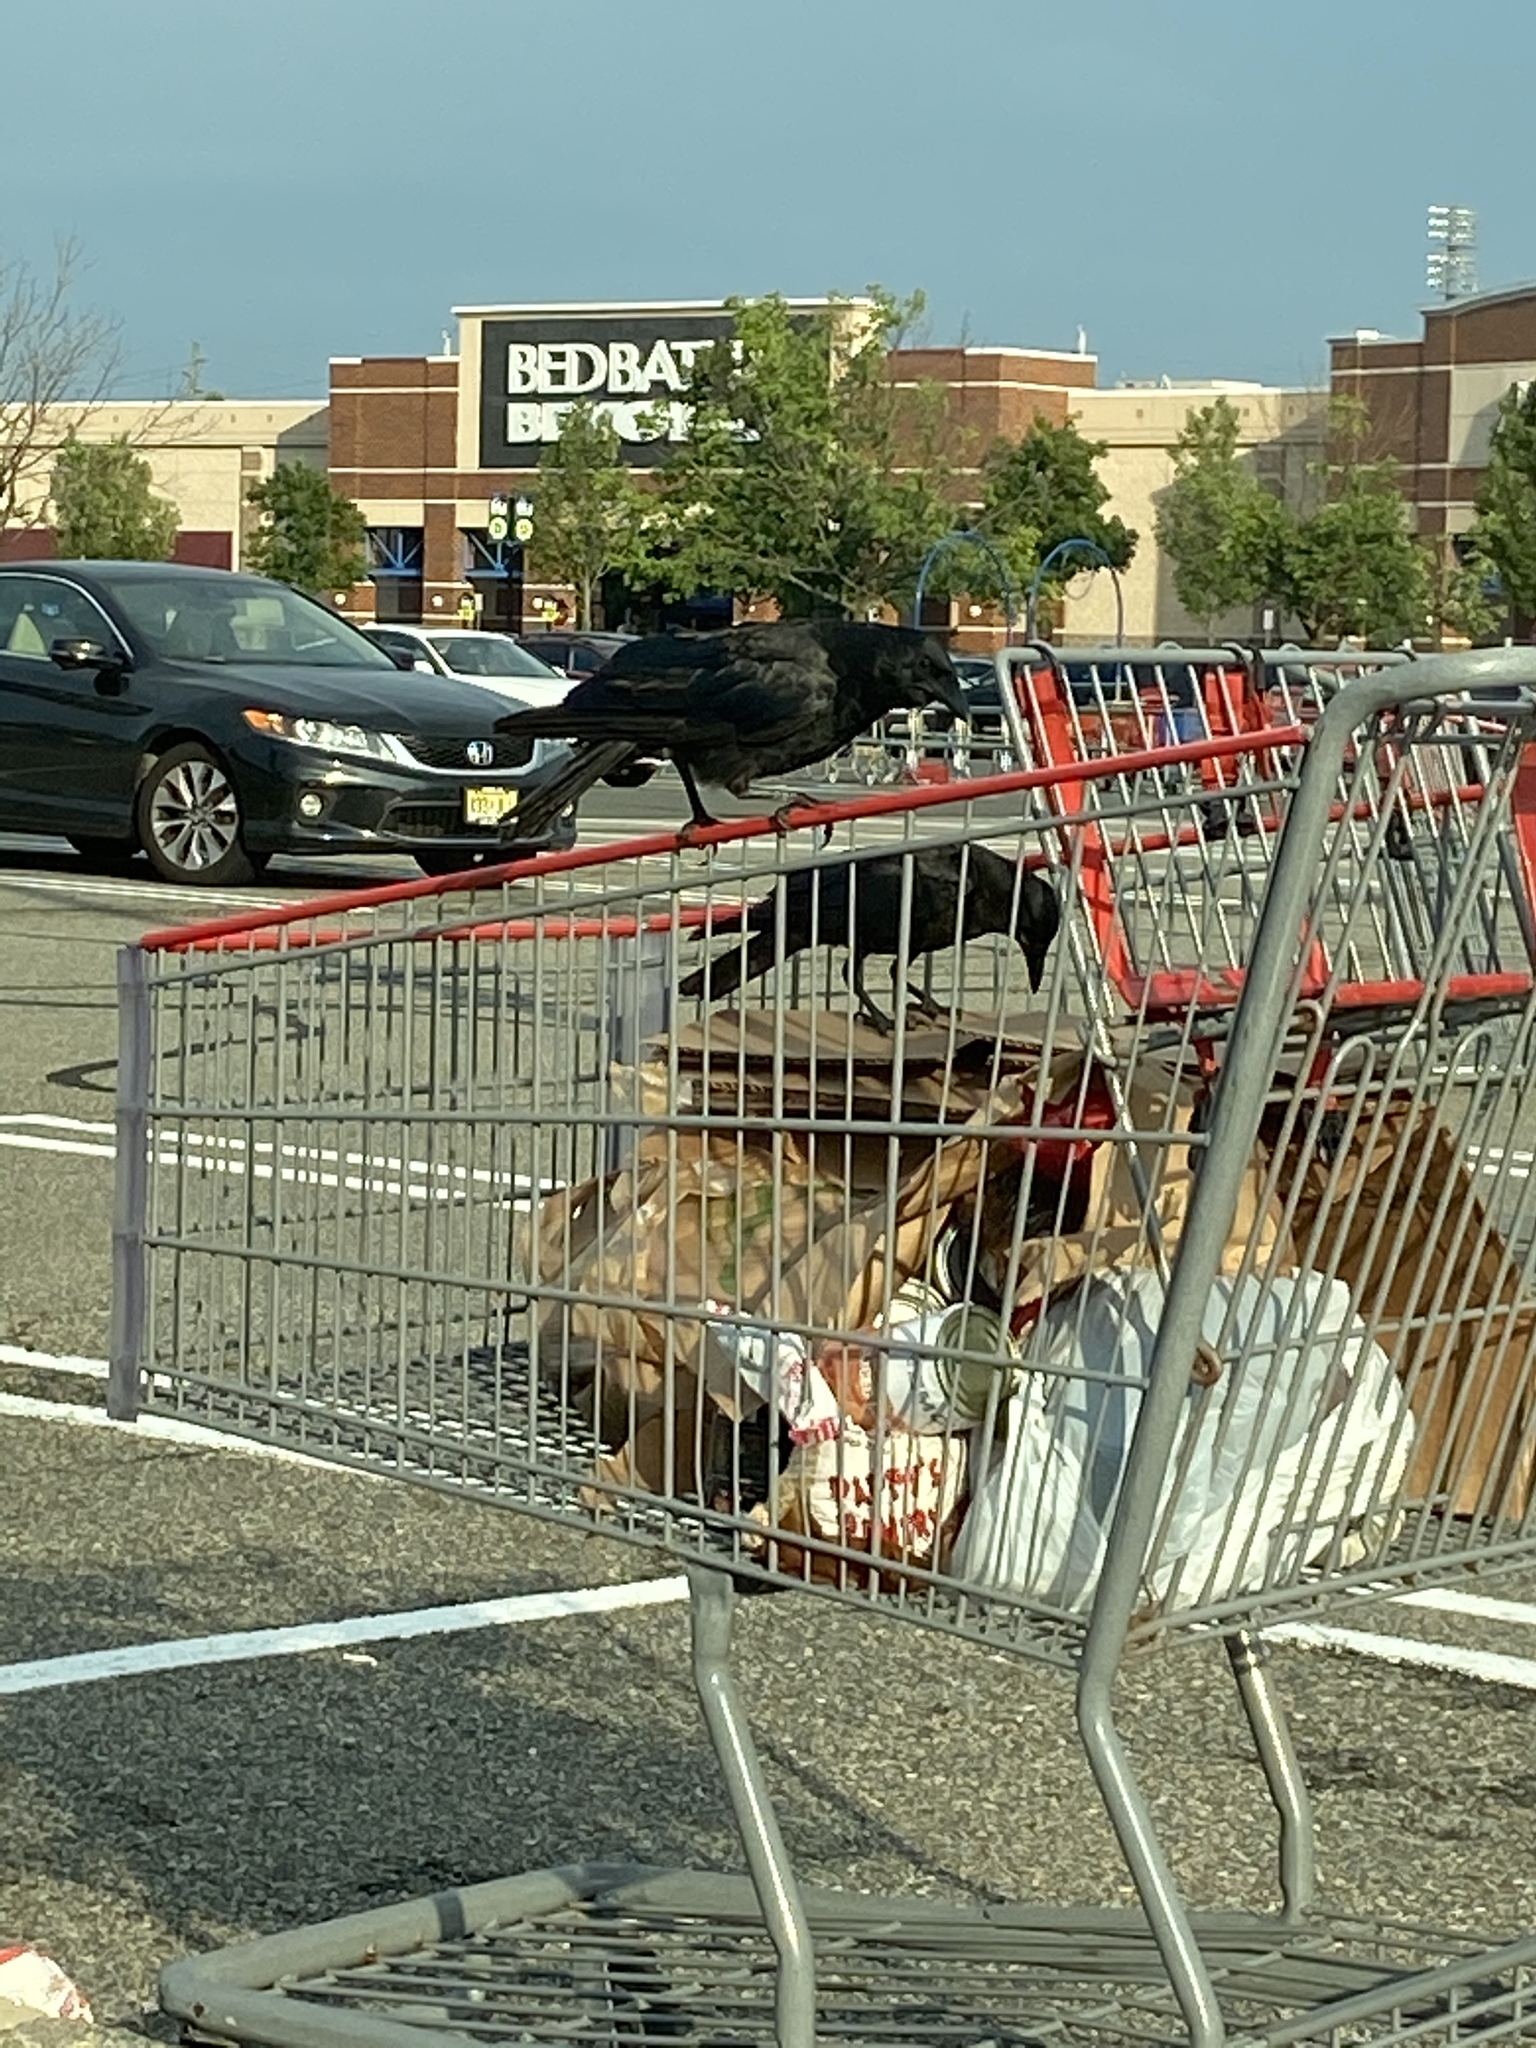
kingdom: Animalia
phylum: Chordata
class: Aves
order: Passeriformes
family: Corvidae
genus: Corvus
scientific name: Corvus
